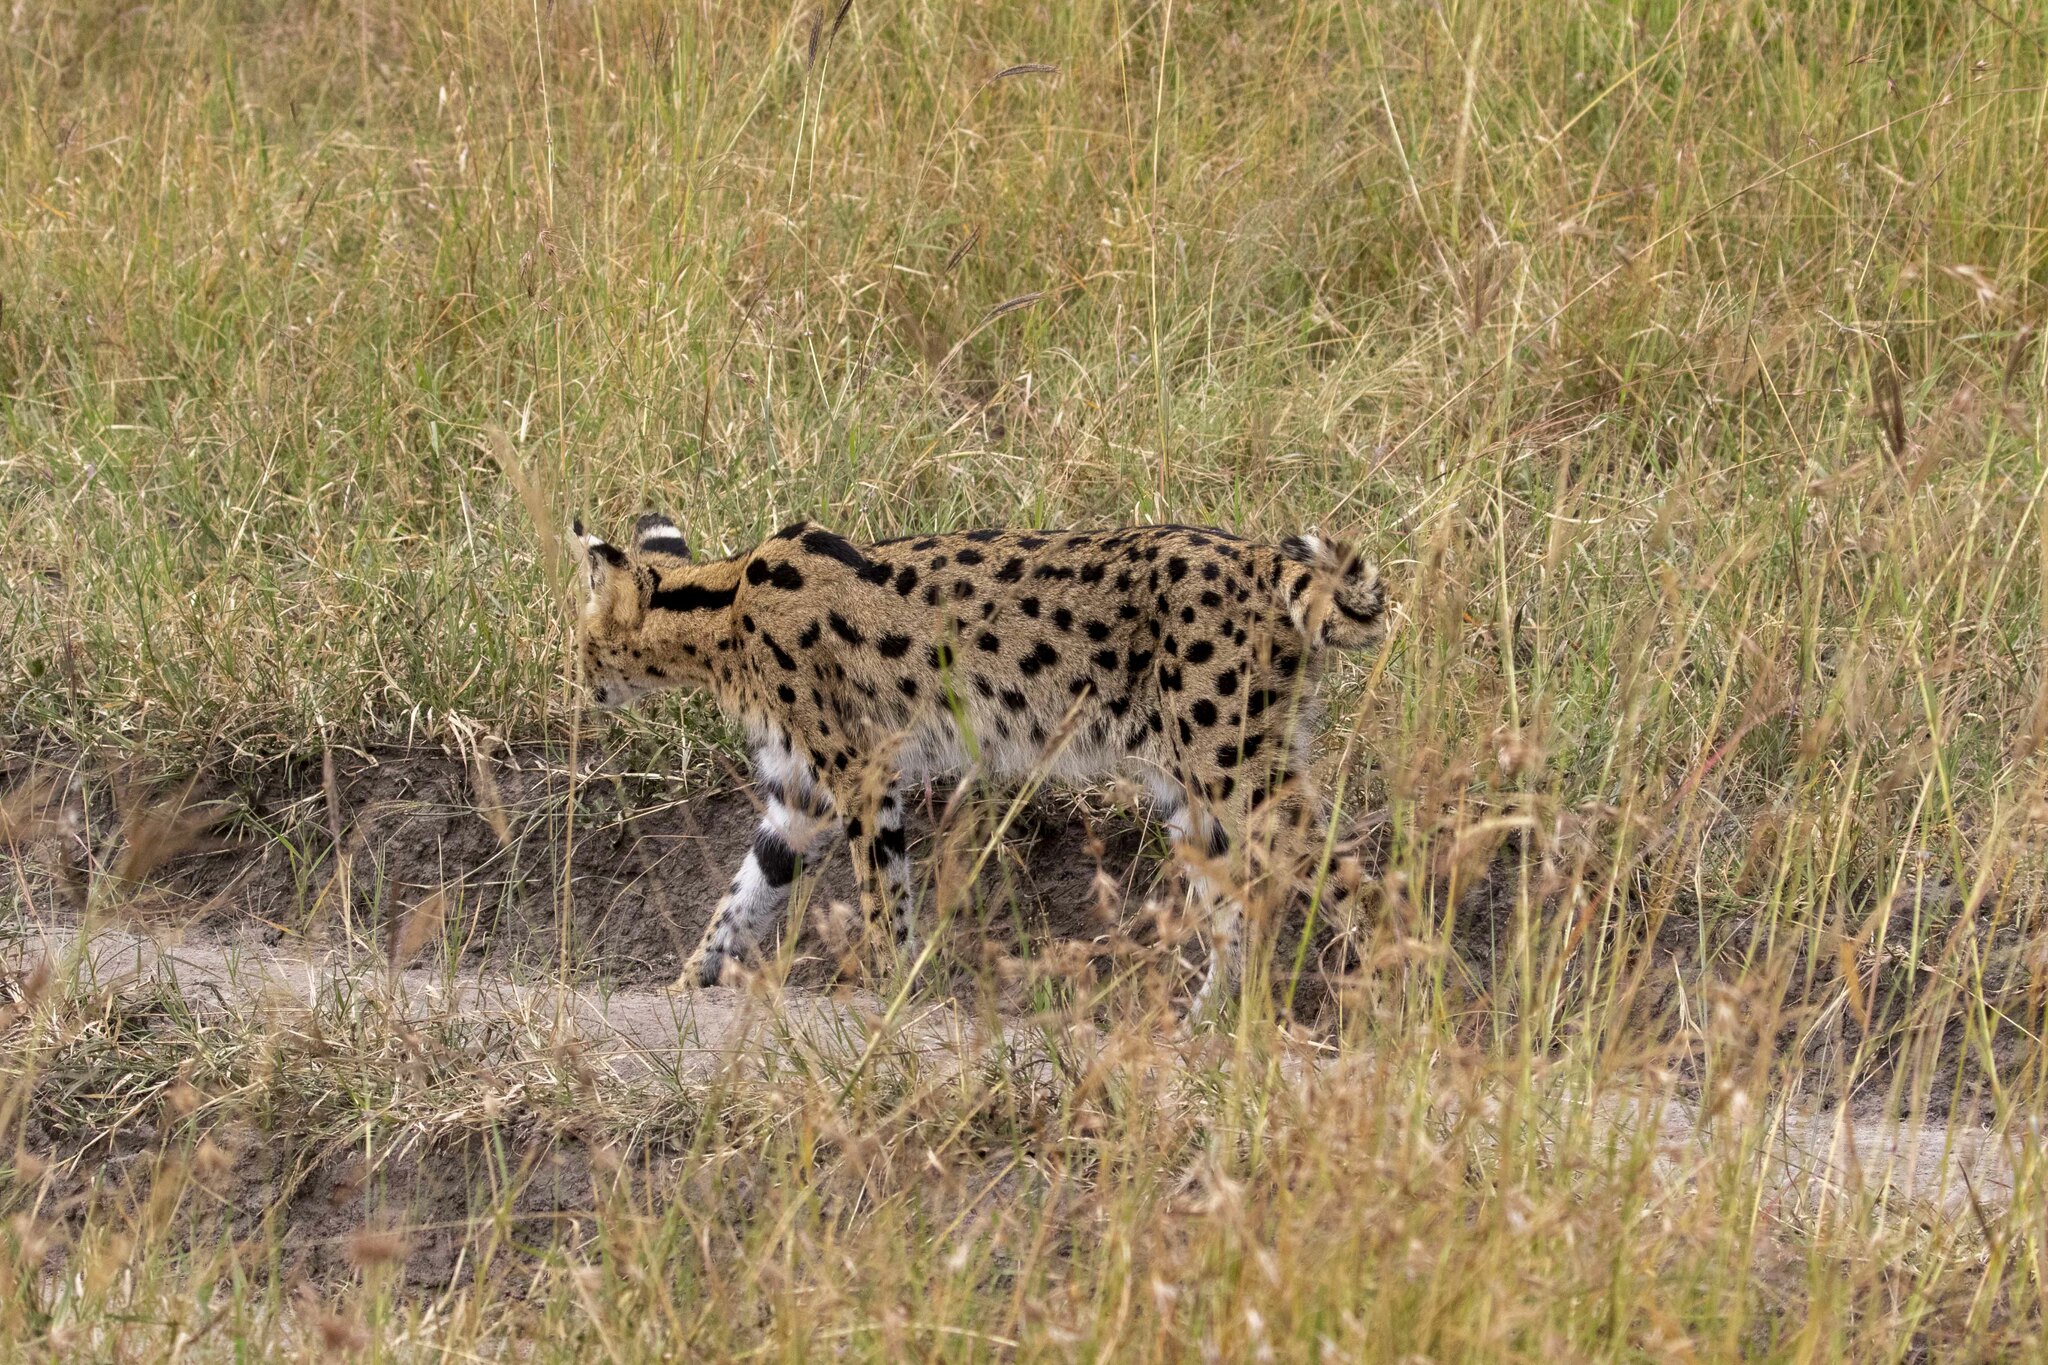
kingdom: Animalia
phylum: Chordata
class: Mammalia
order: Carnivora
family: Felidae
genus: Leptailurus
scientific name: Leptailurus serval
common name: Serval
